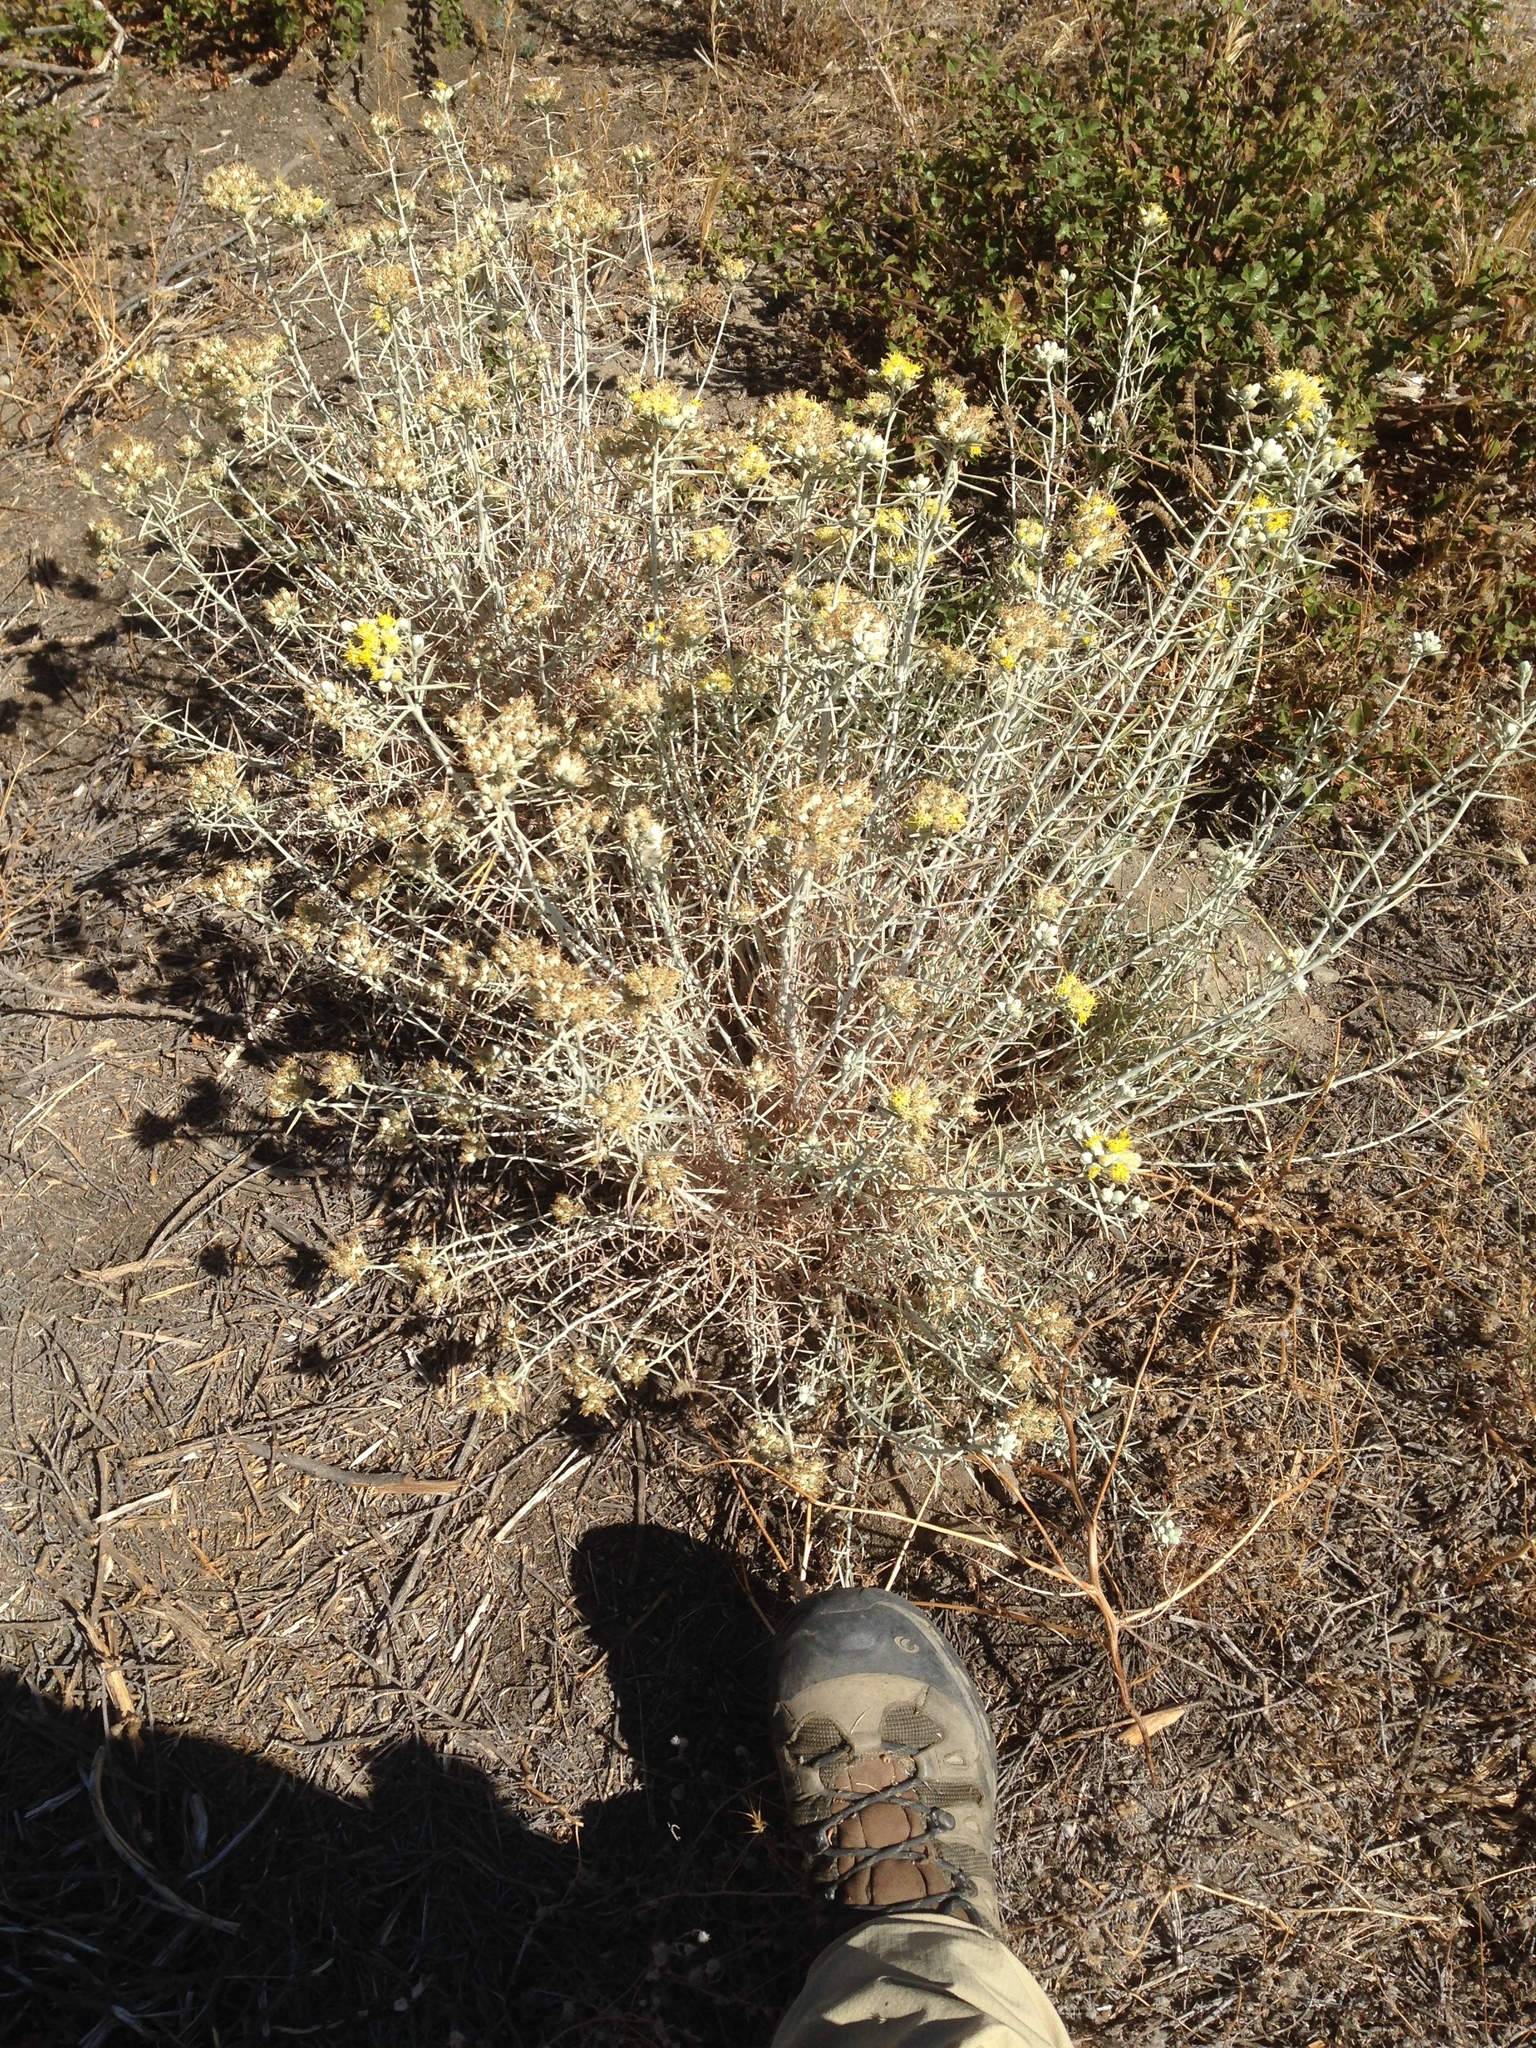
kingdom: Plantae
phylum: Tracheophyta
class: Magnoliopsida
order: Asterales
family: Asteraceae
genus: Tetradymia
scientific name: Tetradymia comosa
